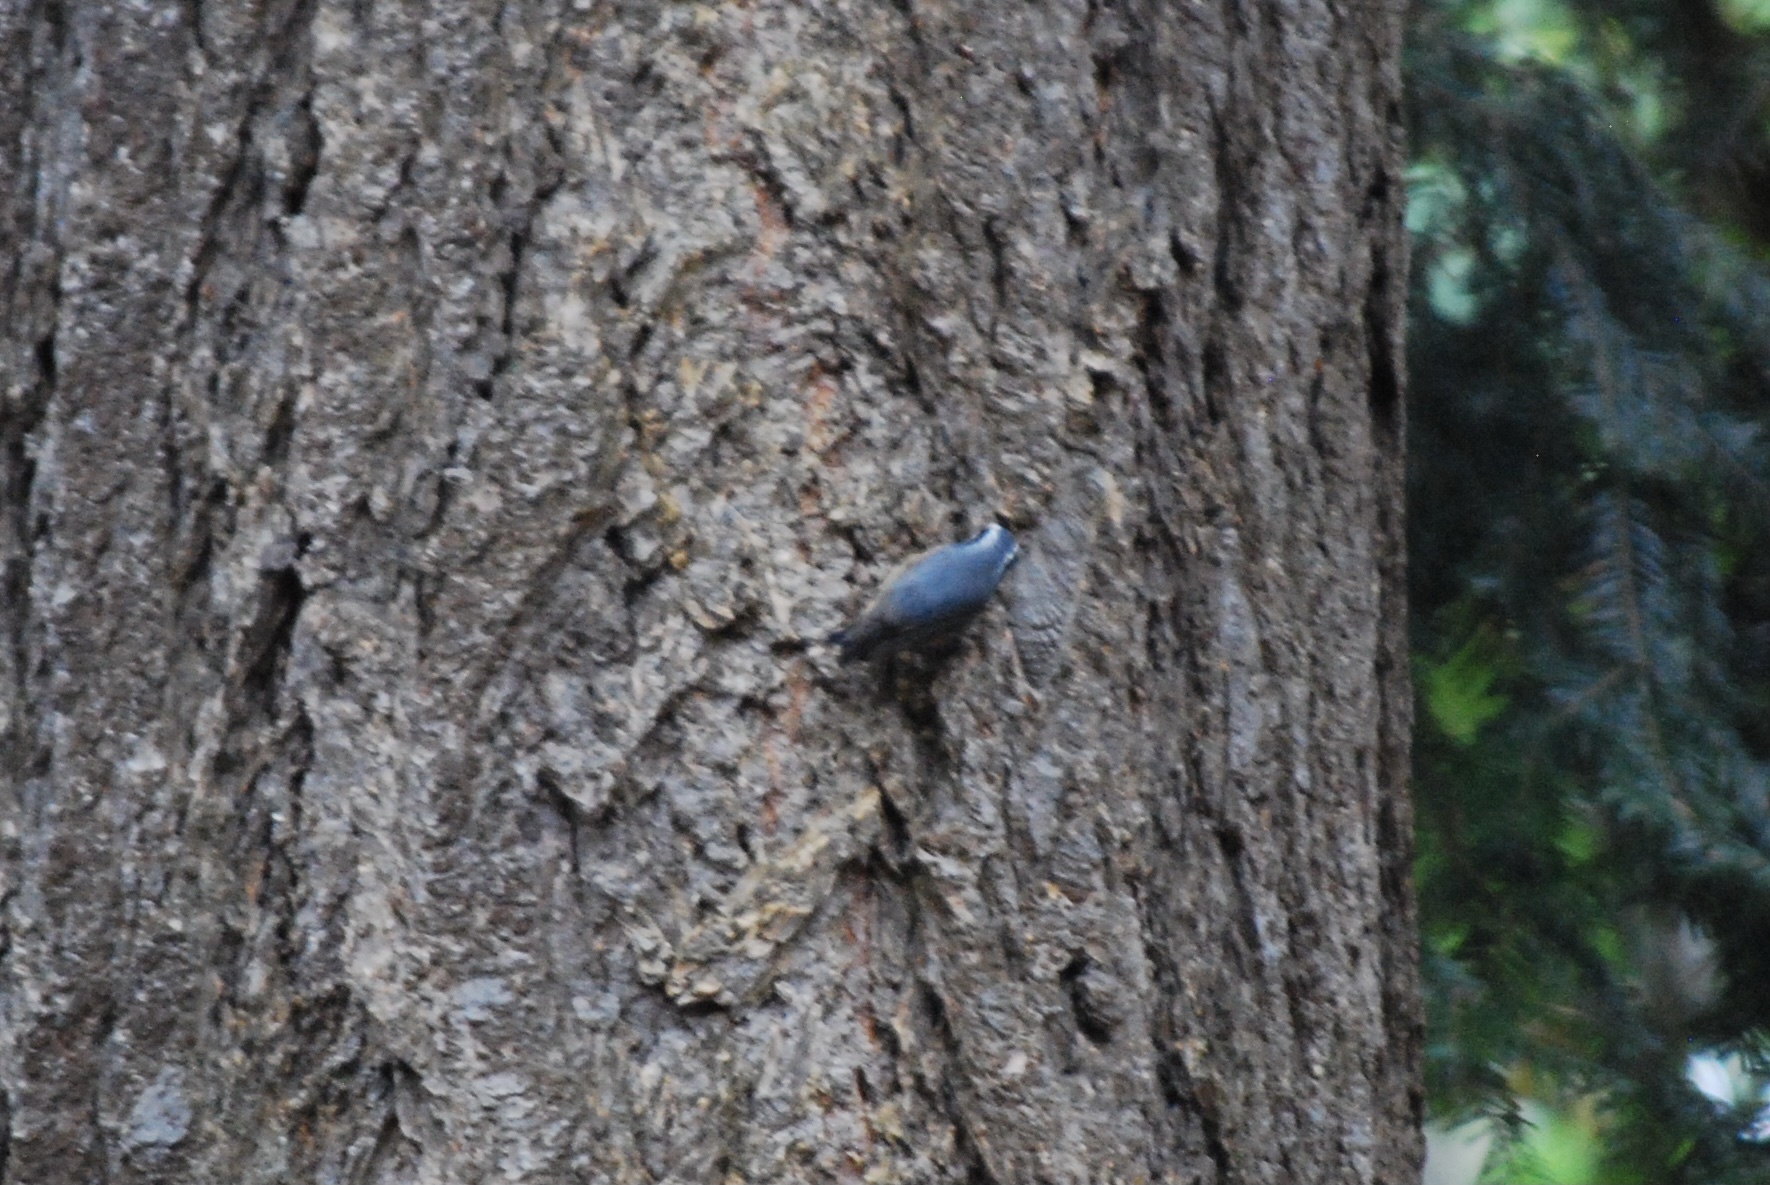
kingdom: Animalia
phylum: Chordata
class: Aves
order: Passeriformes
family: Sittidae
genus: Sitta
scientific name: Sitta canadensis
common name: Red-breasted nuthatch
